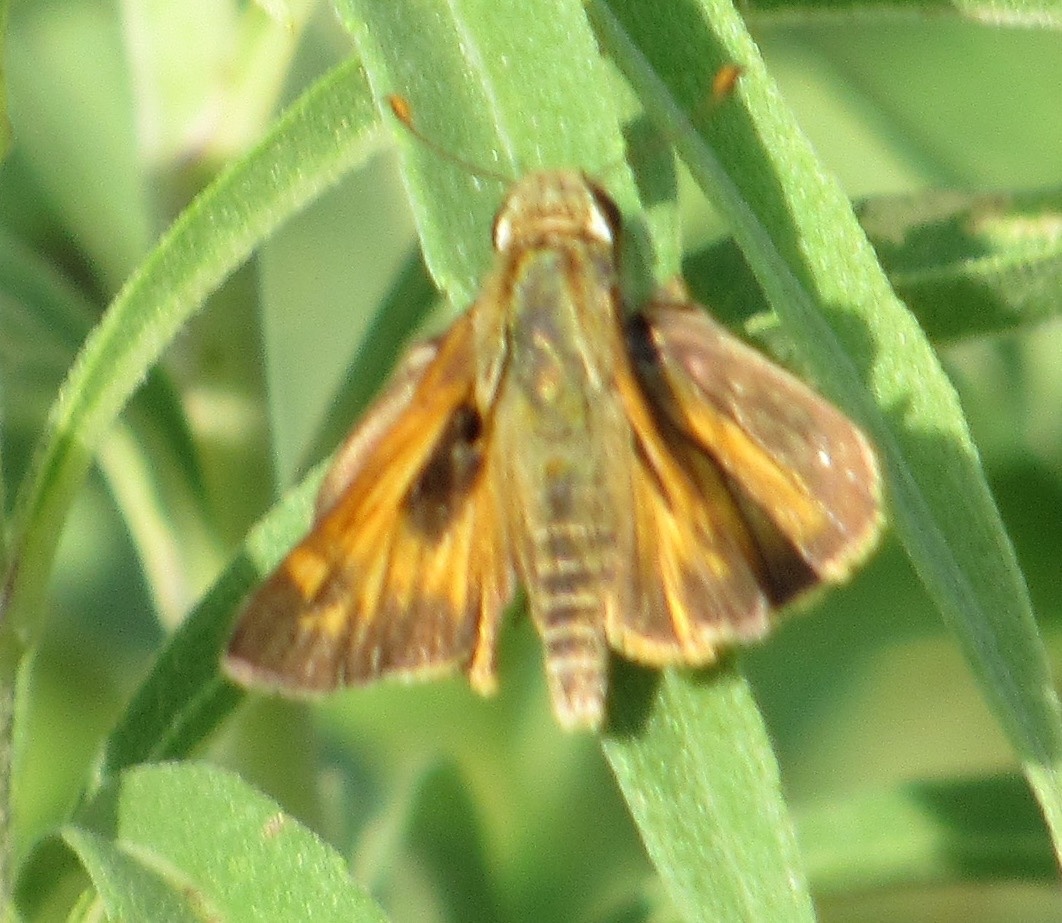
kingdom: Animalia
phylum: Arthropoda
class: Insecta
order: Lepidoptera
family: Hesperiidae
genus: Atalopedes
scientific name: Atalopedes
